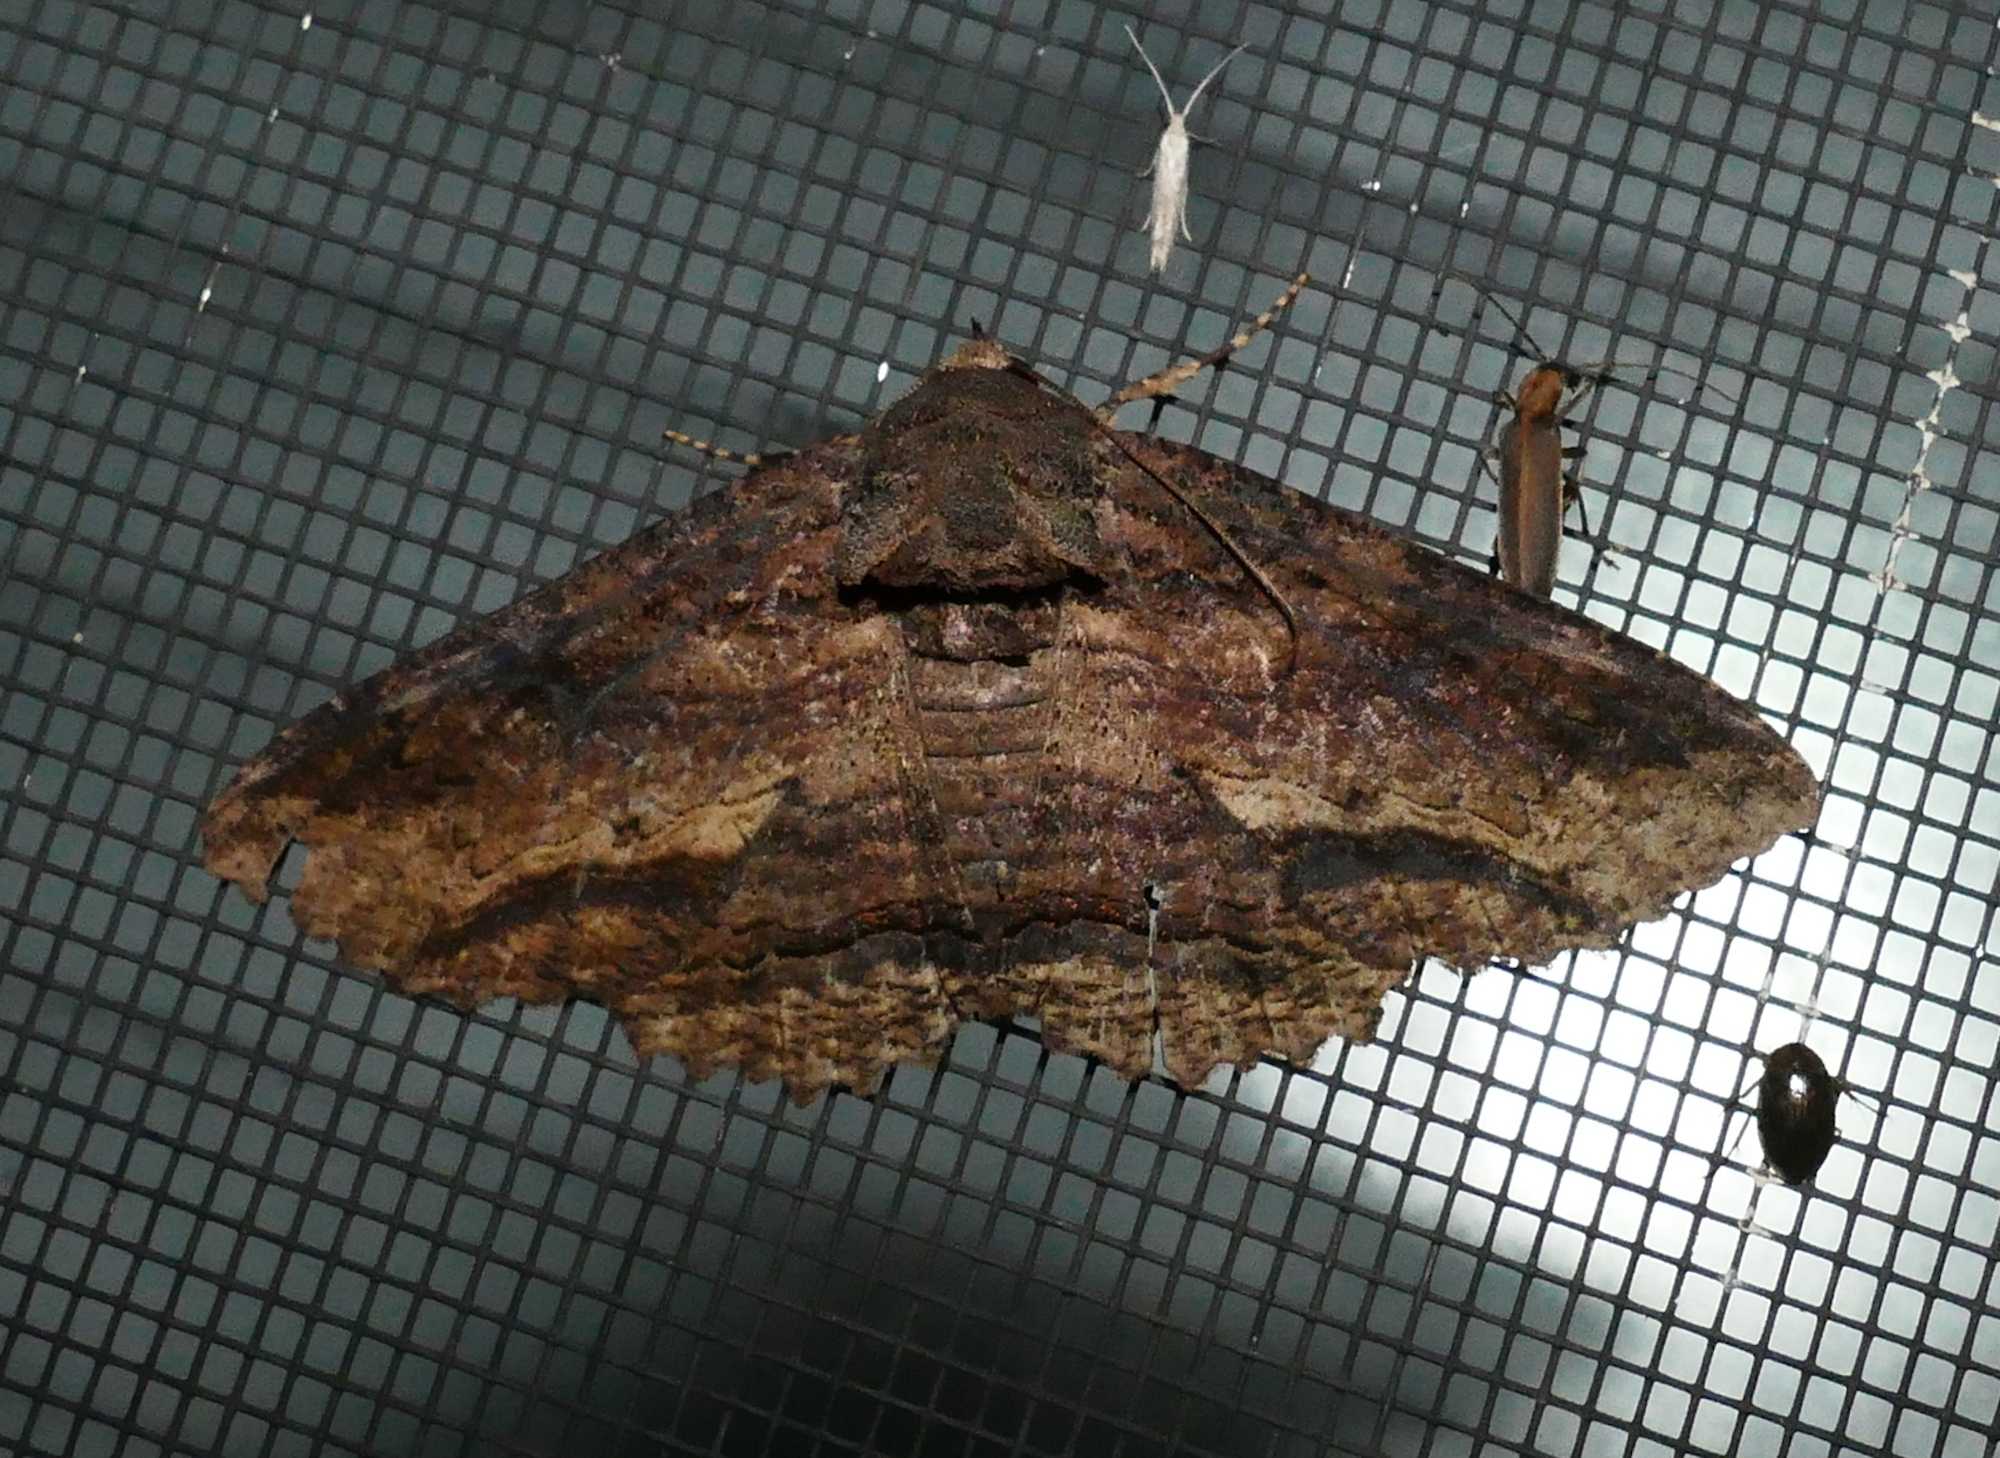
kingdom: Animalia
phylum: Arthropoda
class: Insecta
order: Lepidoptera
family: Erebidae
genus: Zale
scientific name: Zale lunata
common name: Lunate zale moth
